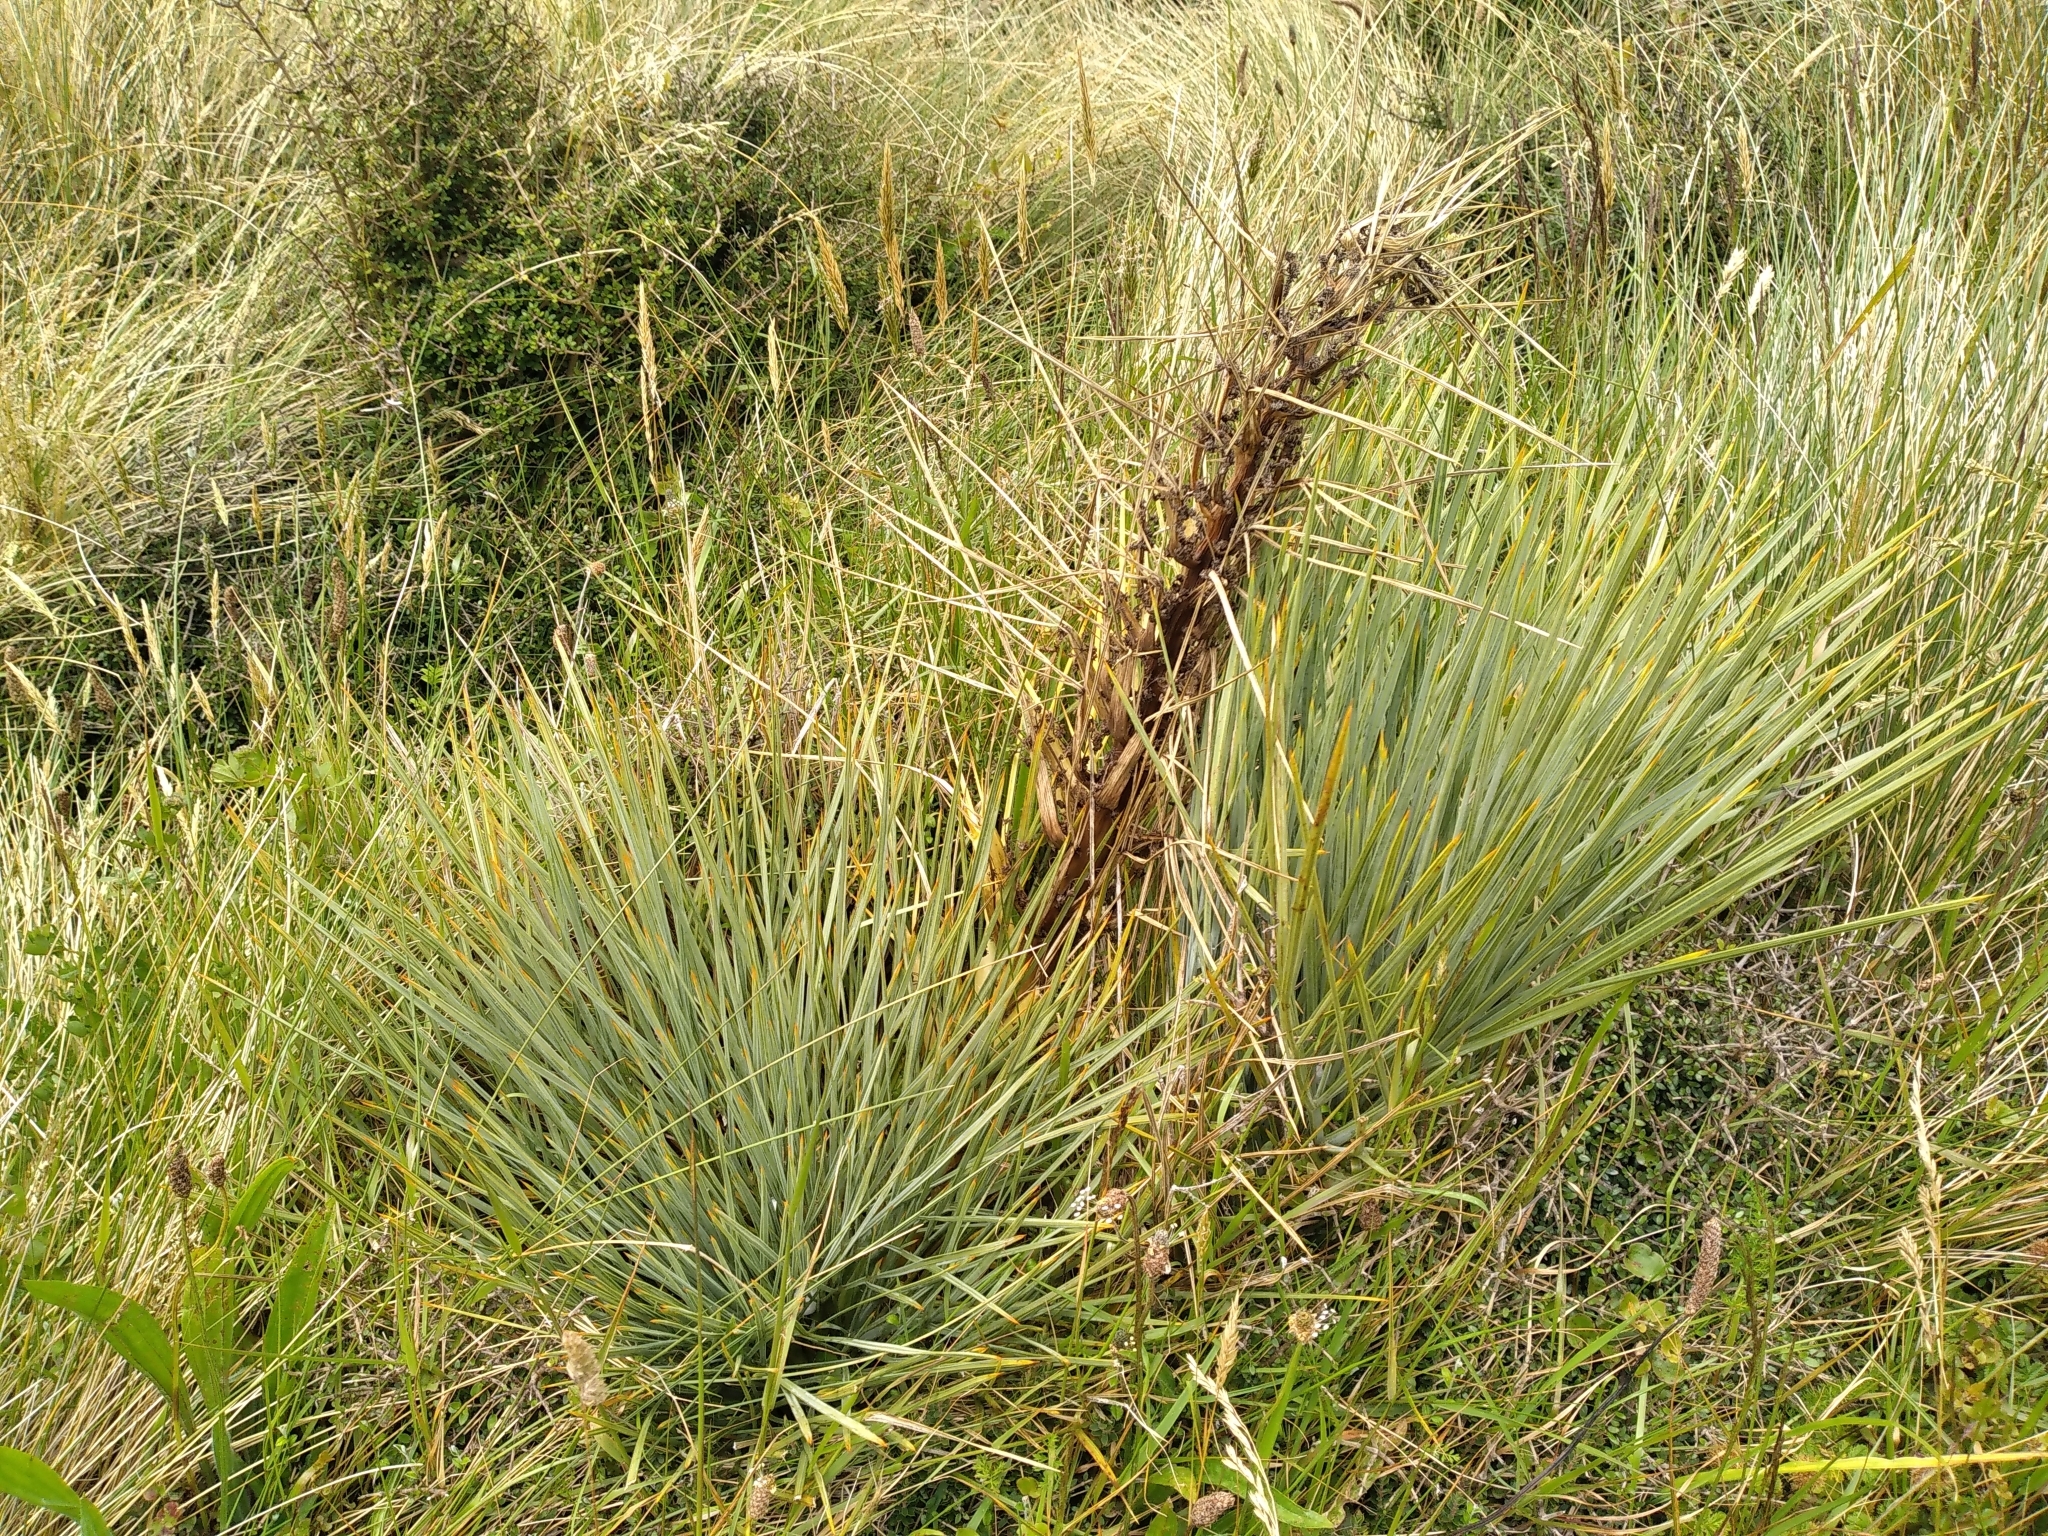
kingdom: Plantae
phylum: Tracheophyta
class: Magnoliopsida
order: Apiales
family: Apiaceae
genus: Aciphylla
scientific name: Aciphylla squarrosa
